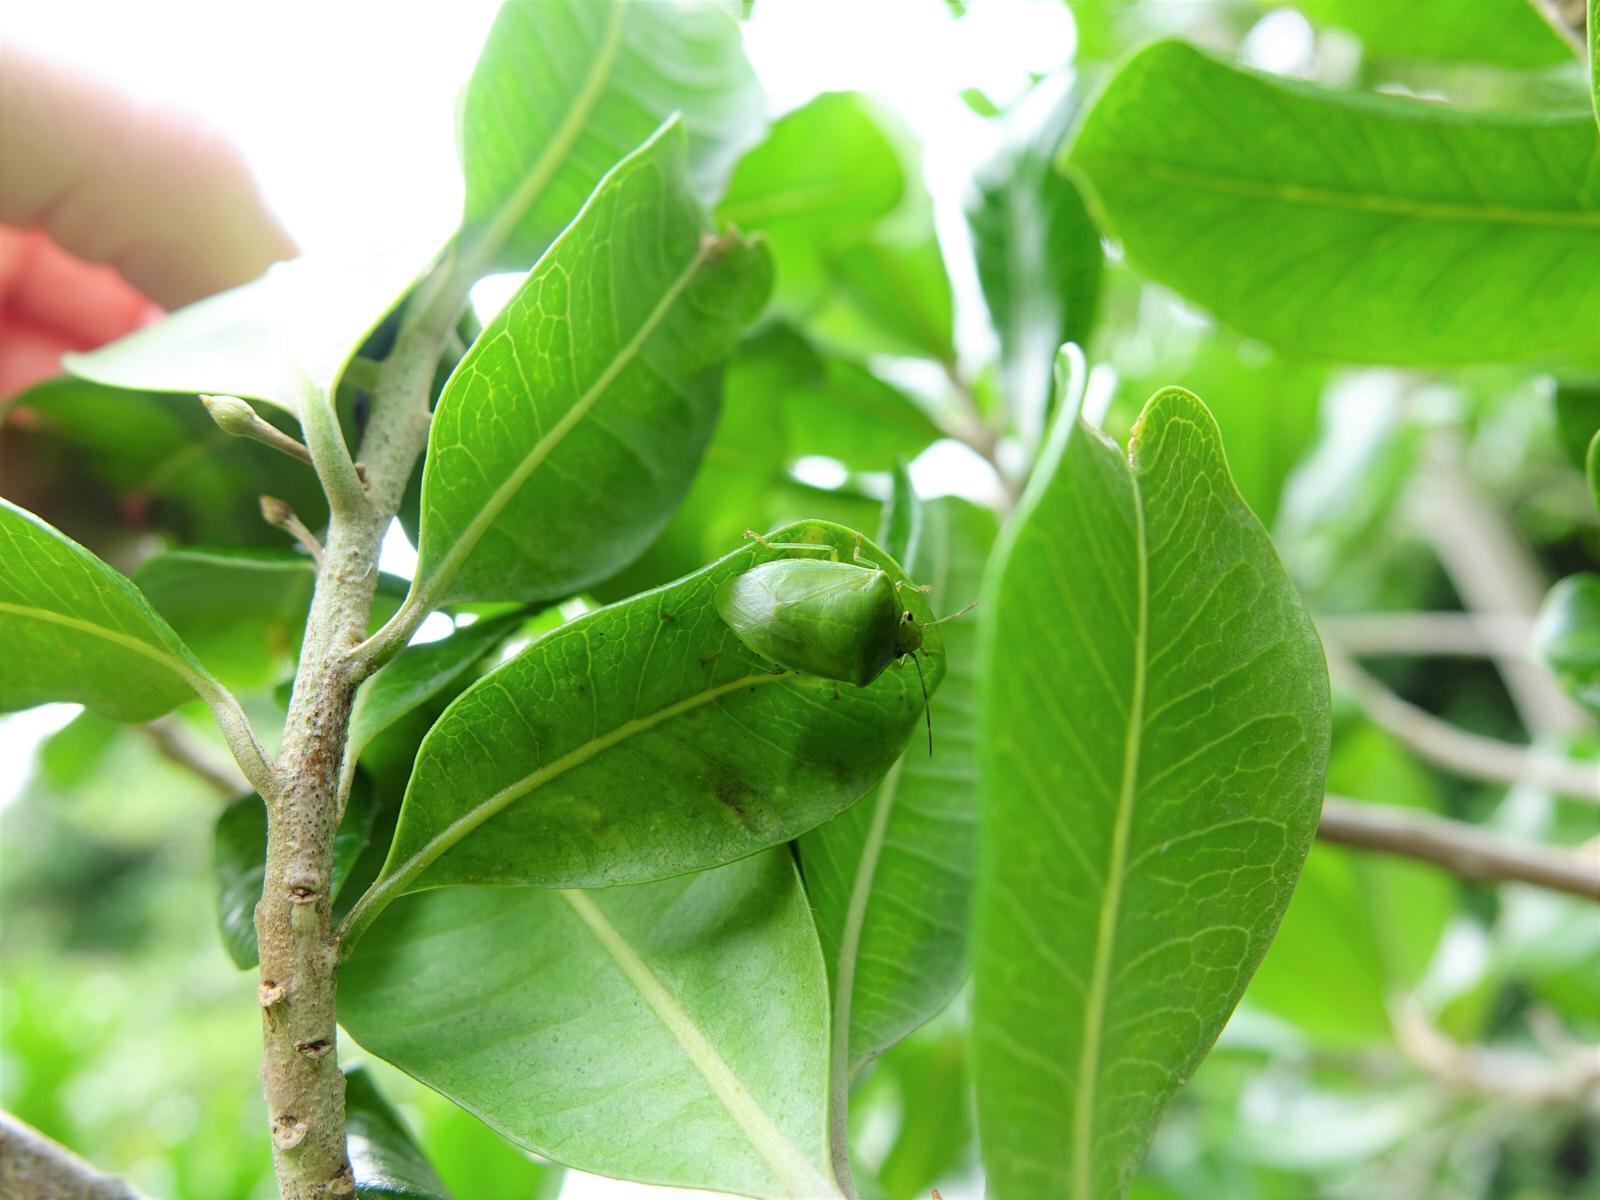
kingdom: Animalia
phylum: Arthropoda
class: Insecta
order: Hemiptera
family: Pentatomidae
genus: Glaucias
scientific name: Glaucias amyota
